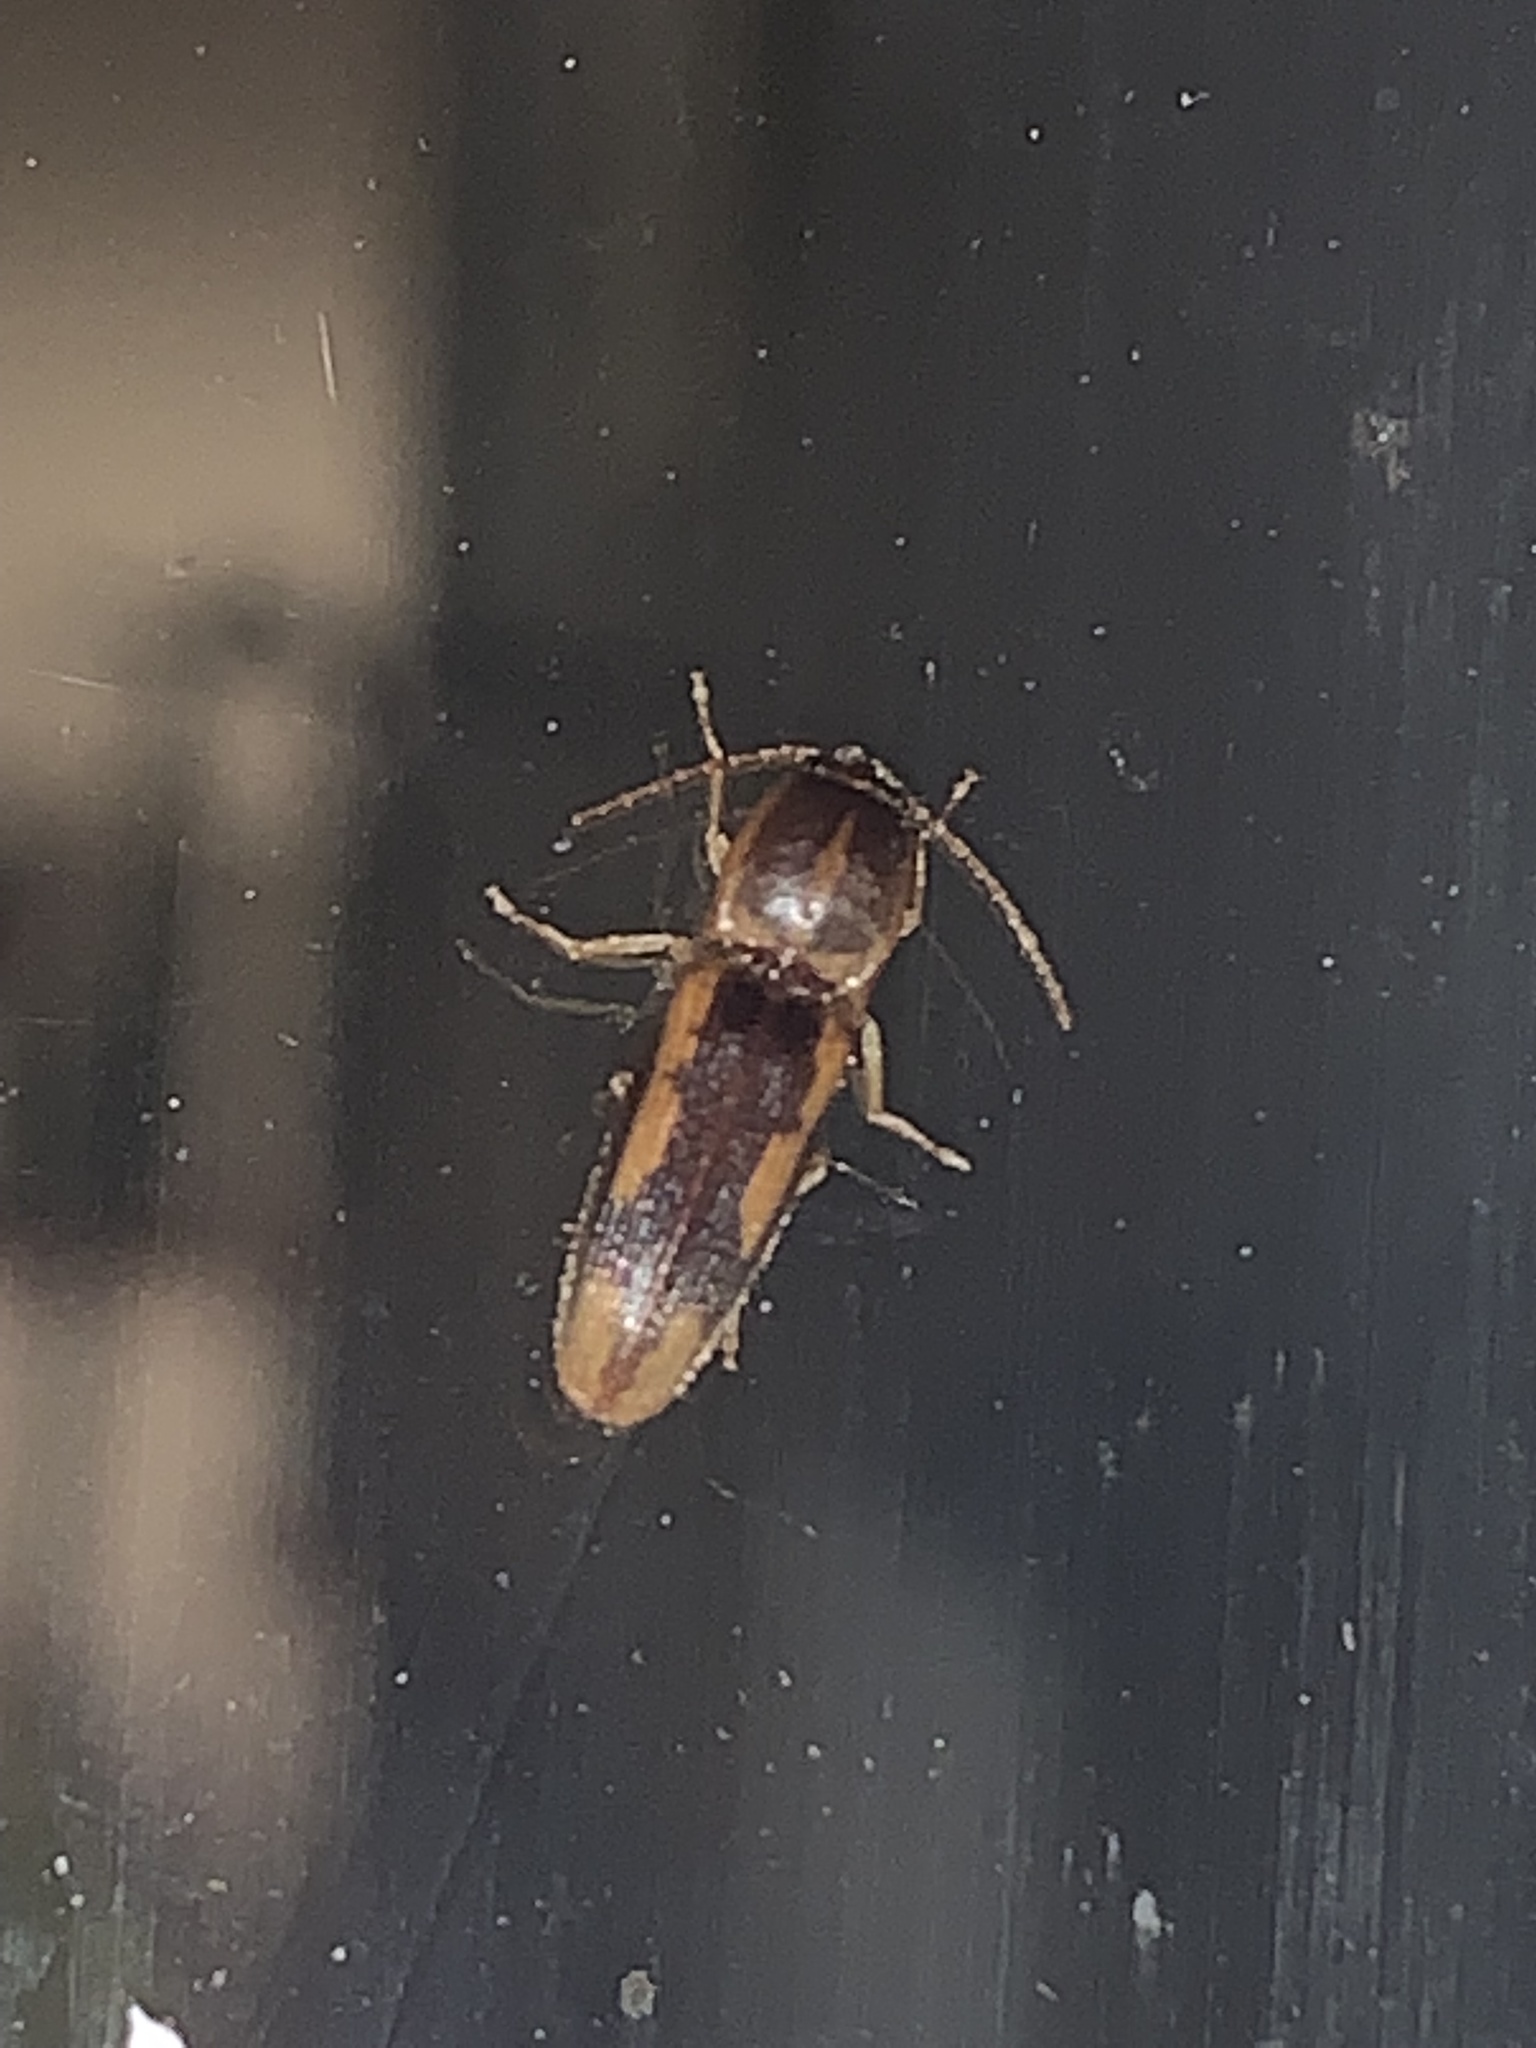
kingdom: Animalia
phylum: Arthropoda
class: Insecta
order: Coleoptera
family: Elateridae
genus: Monocrepidius
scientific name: Monocrepidius
